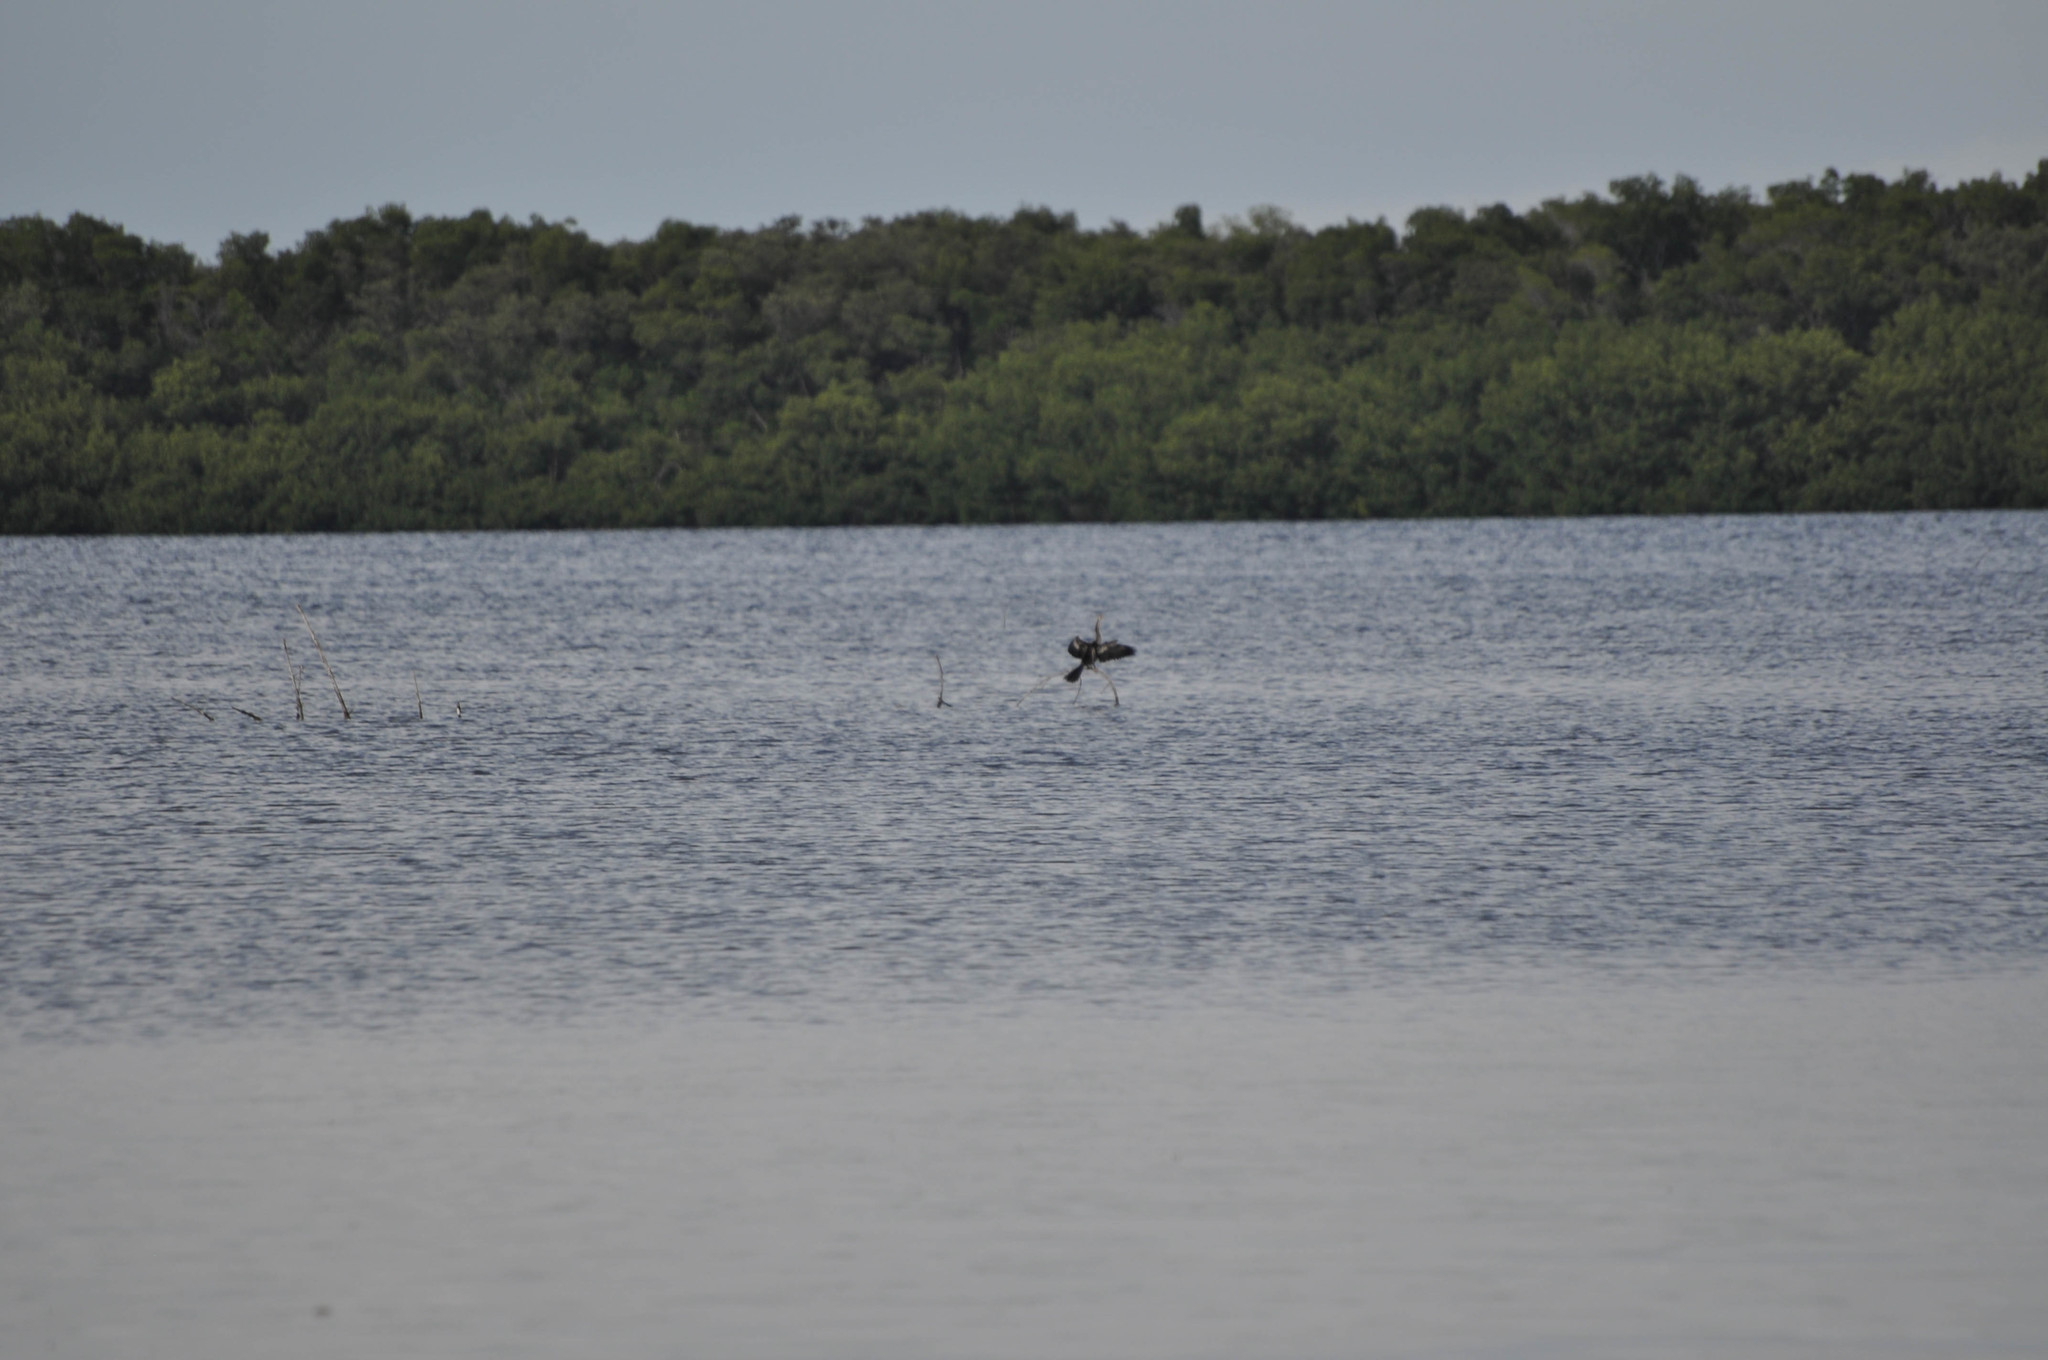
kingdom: Animalia
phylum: Chordata
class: Aves
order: Suliformes
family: Anhingidae
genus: Anhinga
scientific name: Anhinga anhinga
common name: Anhinga
